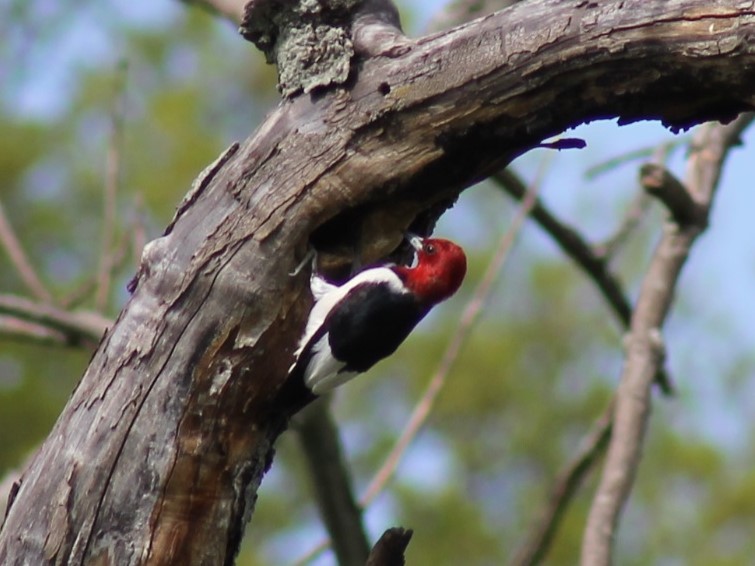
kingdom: Animalia
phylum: Chordata
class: Aves
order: Piciformes
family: Picidae
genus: Melanerpes
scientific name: Melanerpes erythrocephalus
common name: Red-headed woodpecker
